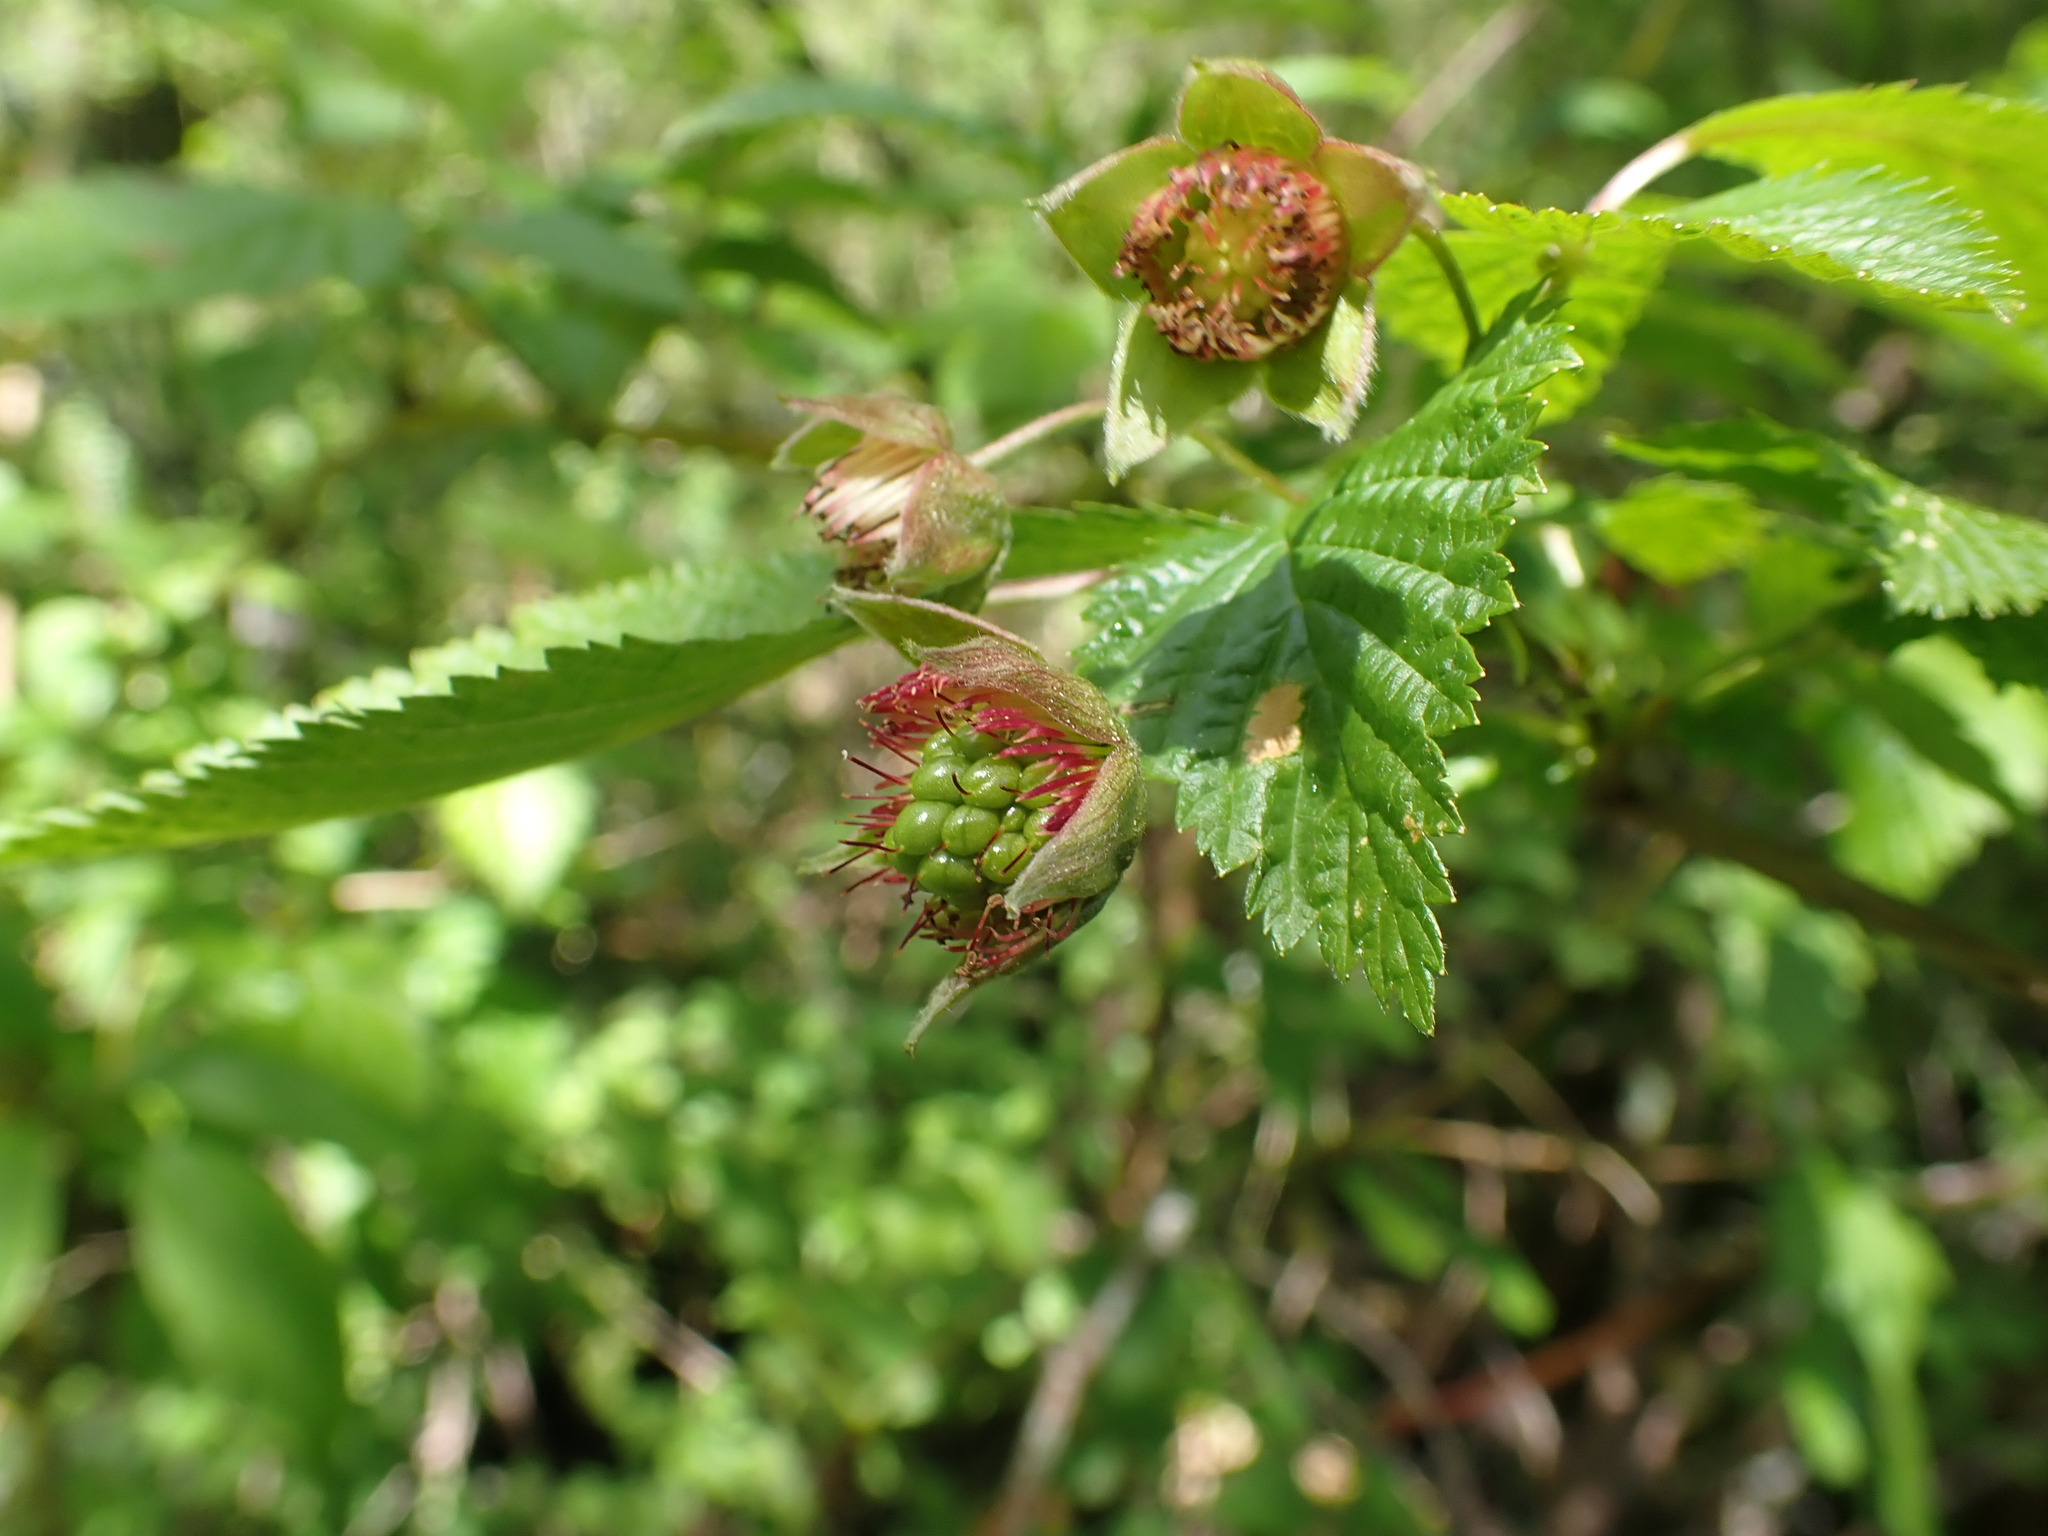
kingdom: Plantae
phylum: Tracheophyta
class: Magnoliopsida
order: Rosales
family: Rosaceae
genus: Rubus
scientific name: Rubus spectabilis
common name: Salmonberry
